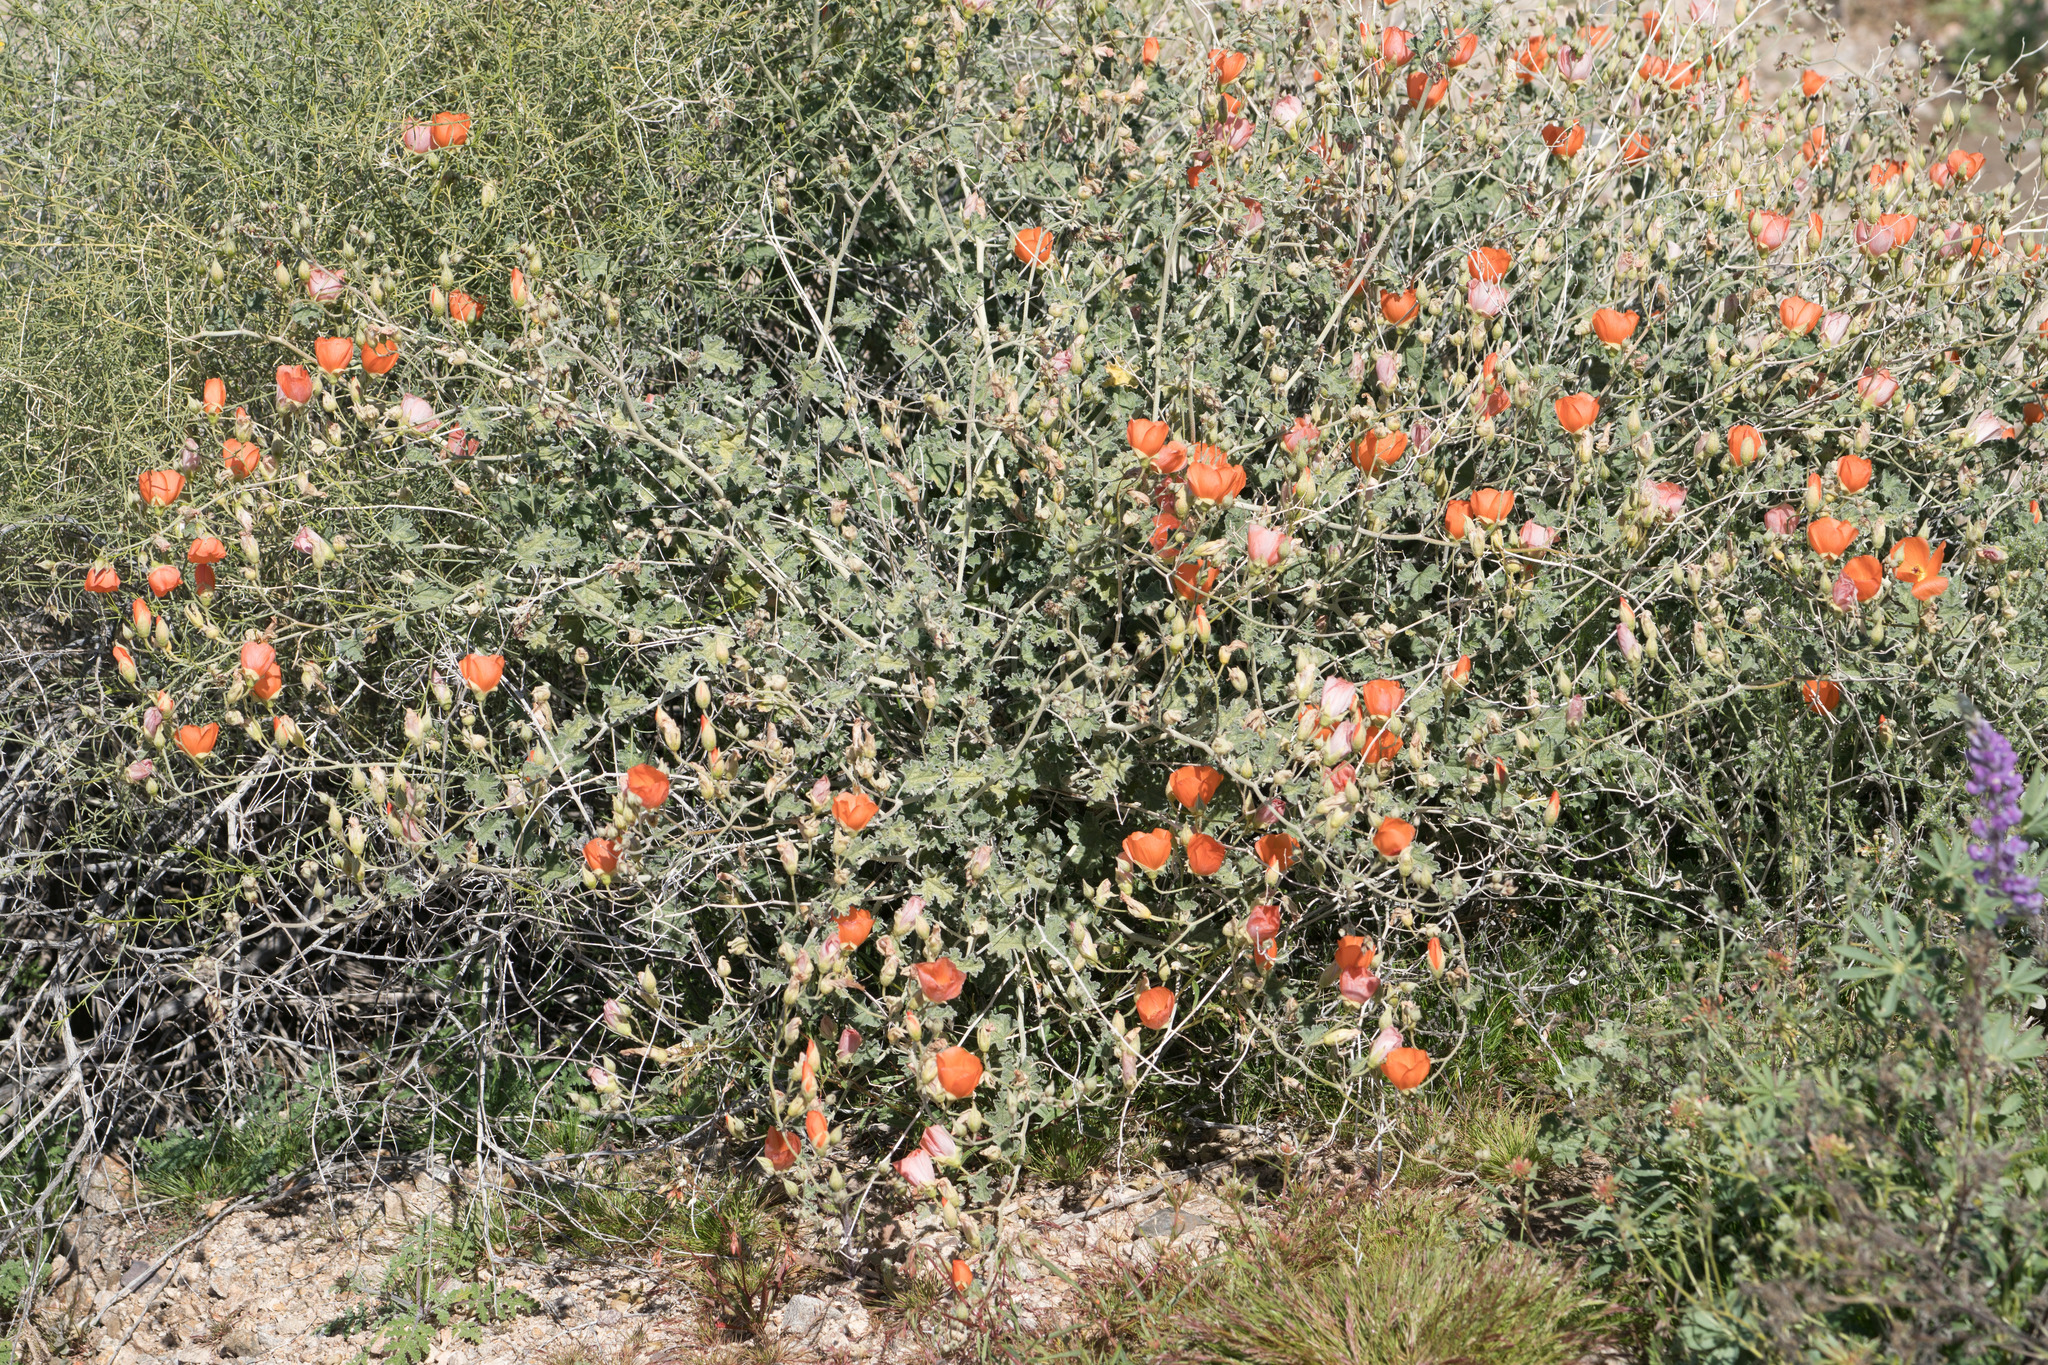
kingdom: Plantae
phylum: Tracheophyta
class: Magnoliopsida
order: Malvales
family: Malvaceae
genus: Sphaeralcea
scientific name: Sphaeralcea ambigua
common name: Apricot globe-mallow
